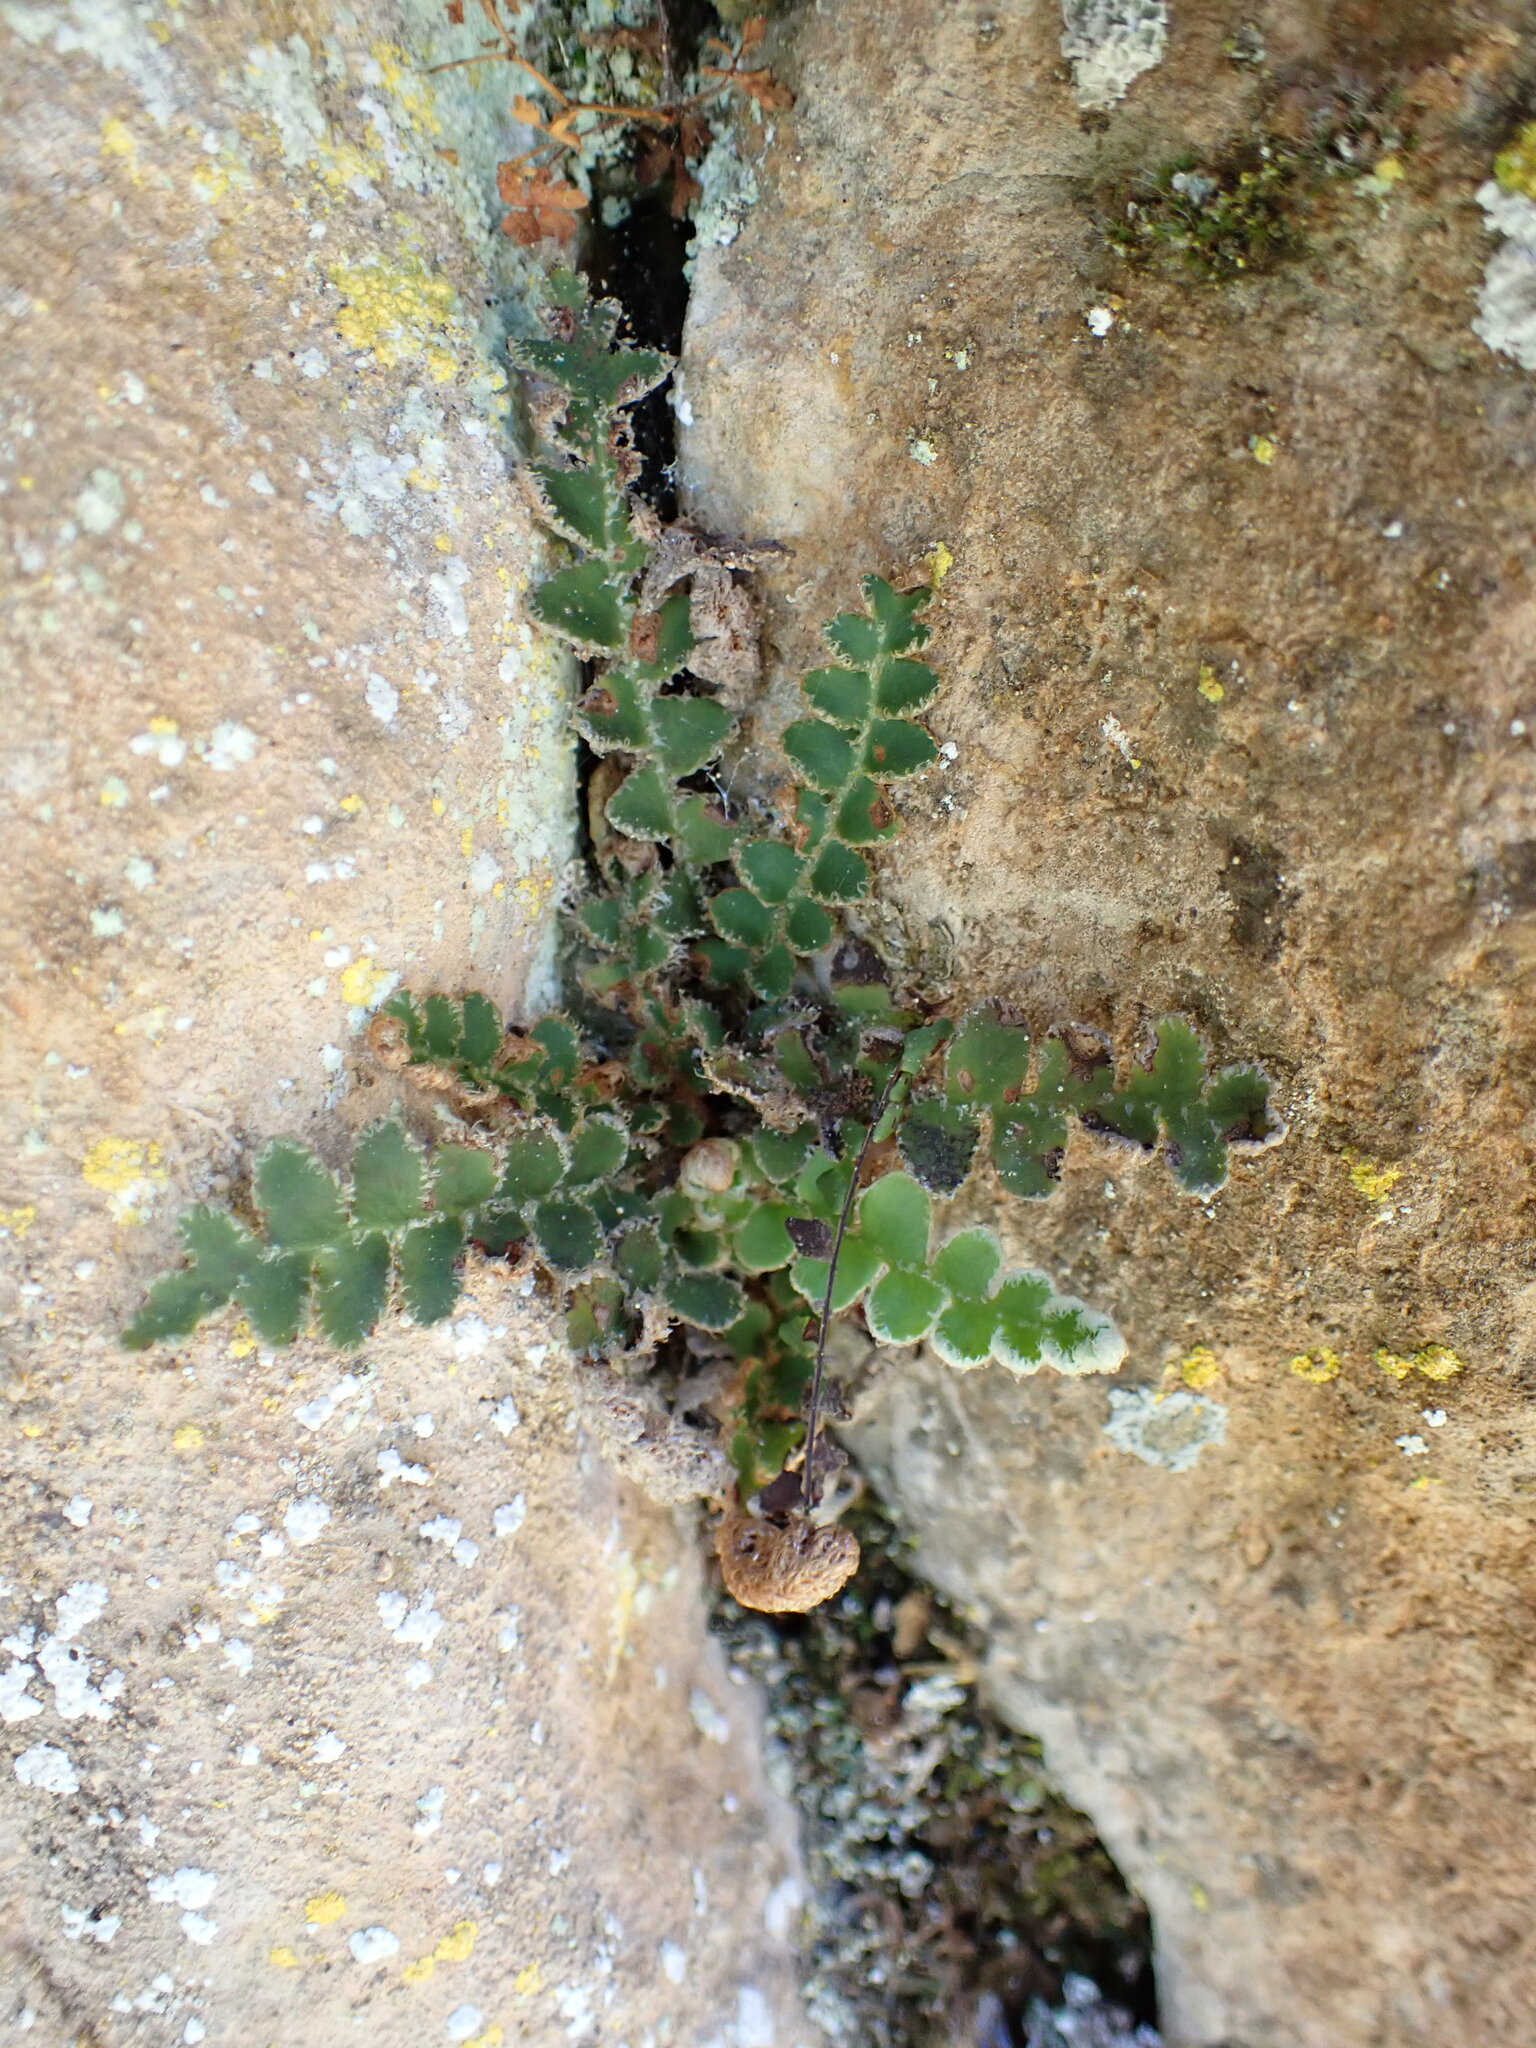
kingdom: Plantae
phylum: Tracheophyta
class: Polypodiopsida
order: Polypodiales
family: Aspleniaceae
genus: Asplenium
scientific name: Asplenium ceterach
